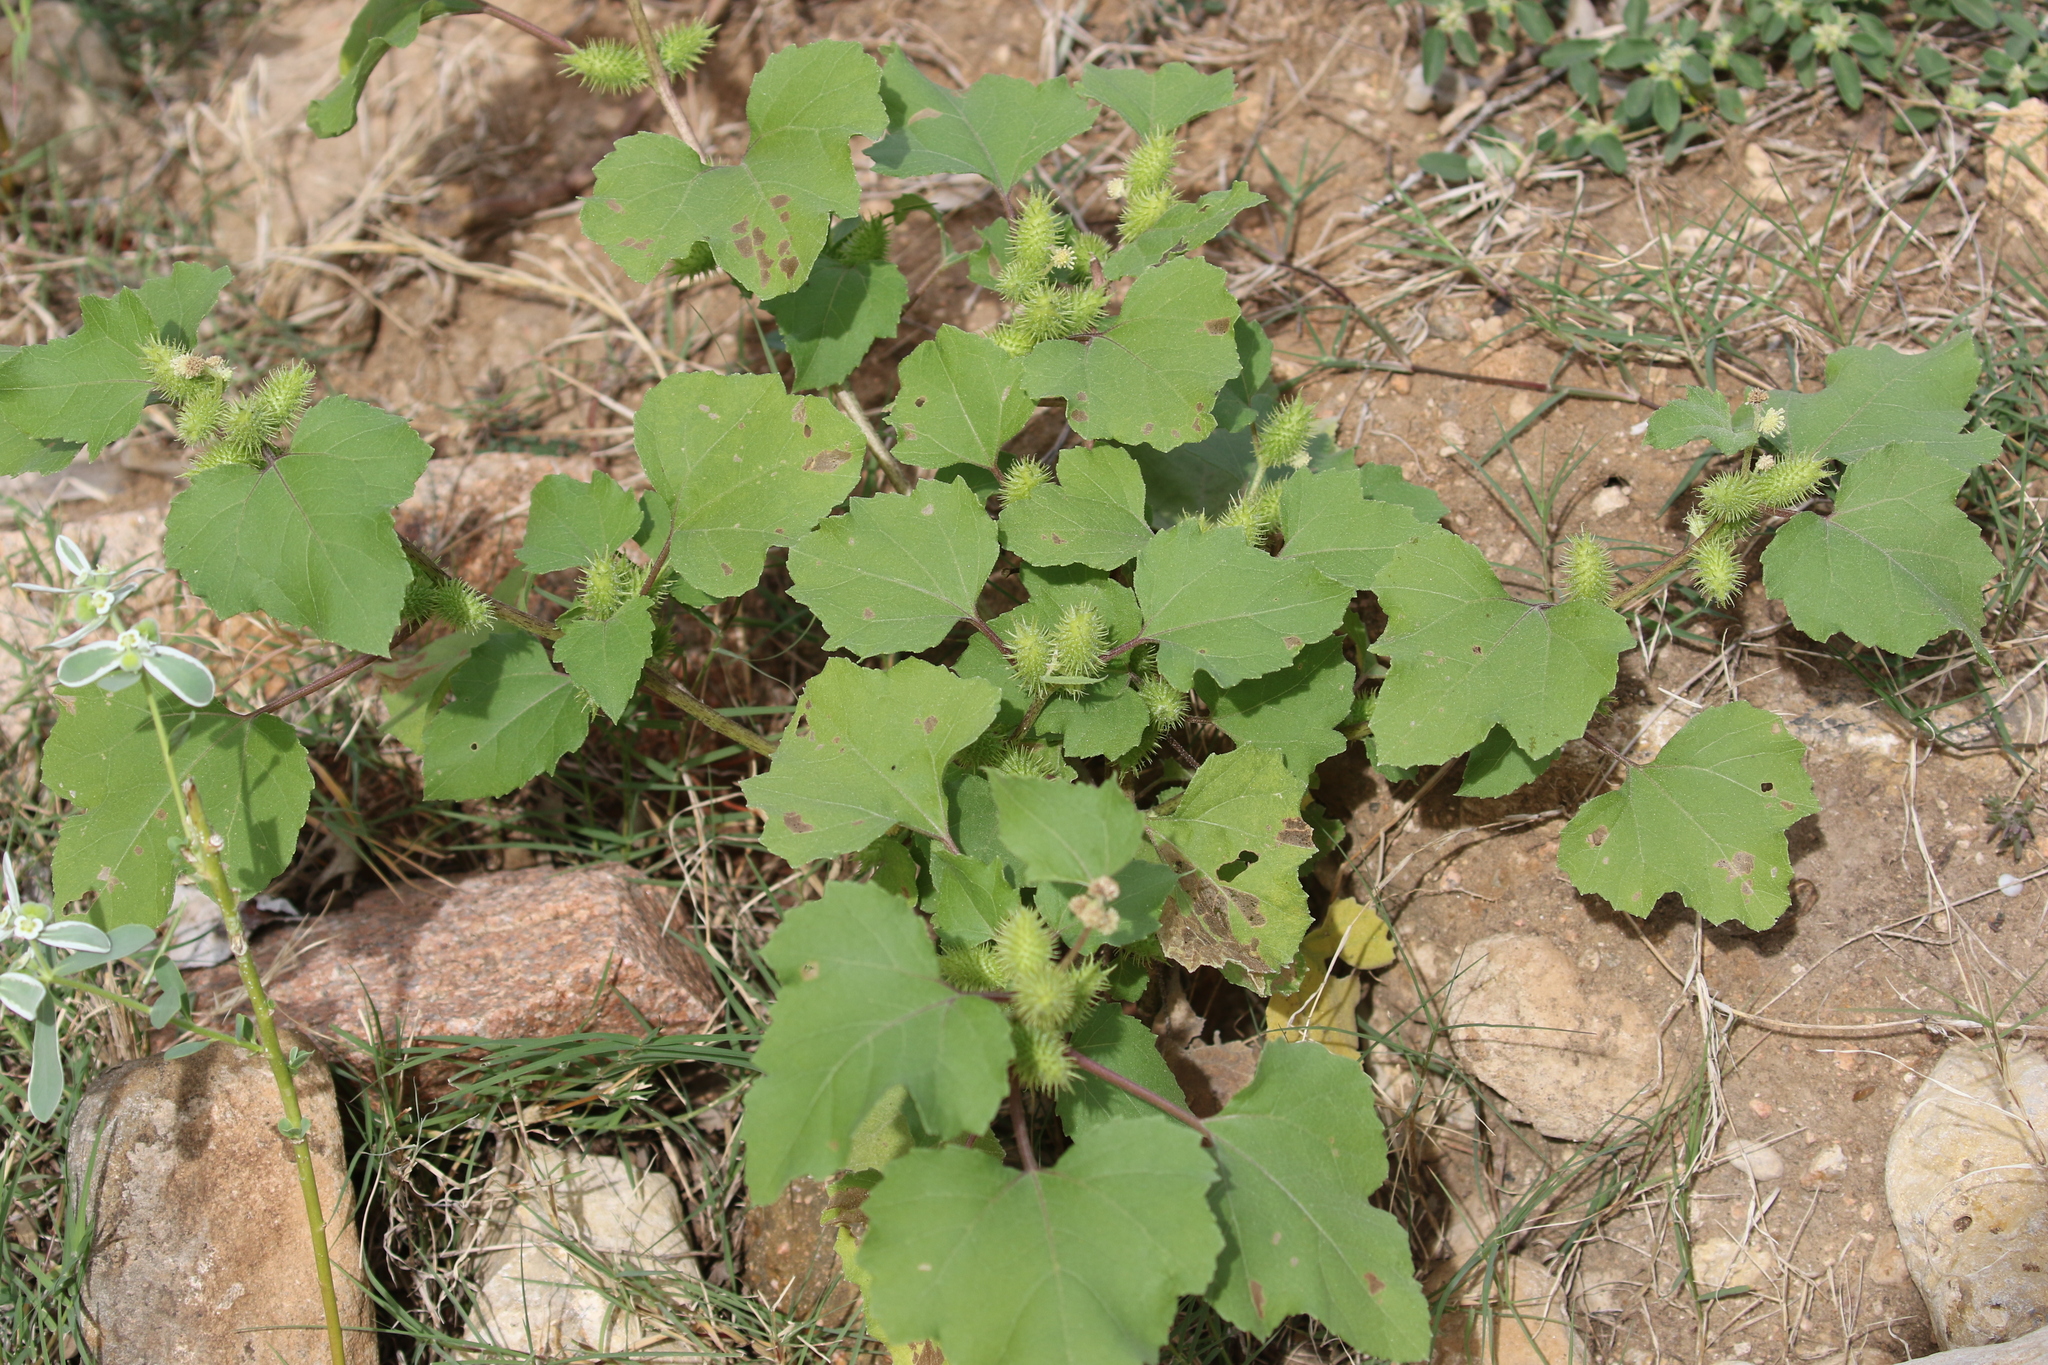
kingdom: Plantae
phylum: Tracheophyta
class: Magnoliopsida
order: Asterales
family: Asteraceae
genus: Xanthium
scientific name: Xanthium strumarium
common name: Rough cocklebur
